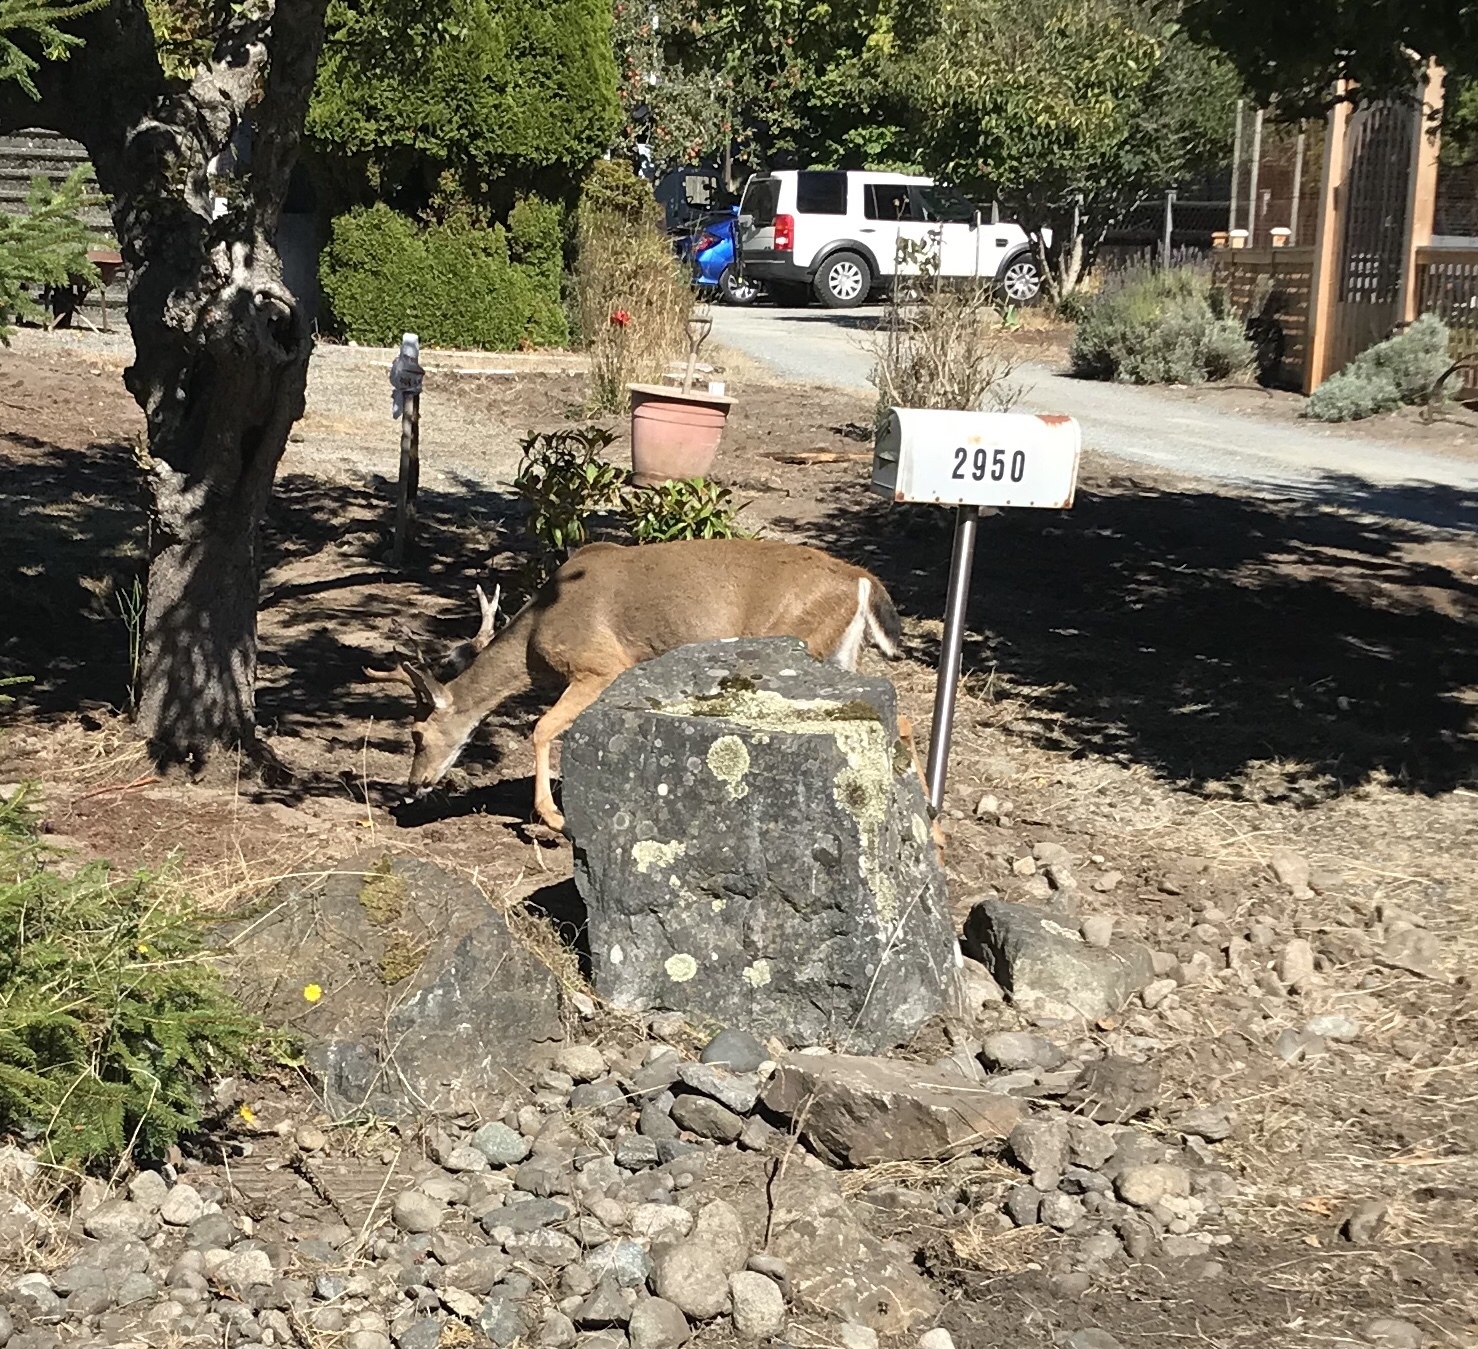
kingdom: Animalia
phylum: Chordata
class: Mammalia
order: Artiodactyla
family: Cervidae
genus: Odocoileus
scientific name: Odocoileus hemionus
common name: Mule deer
